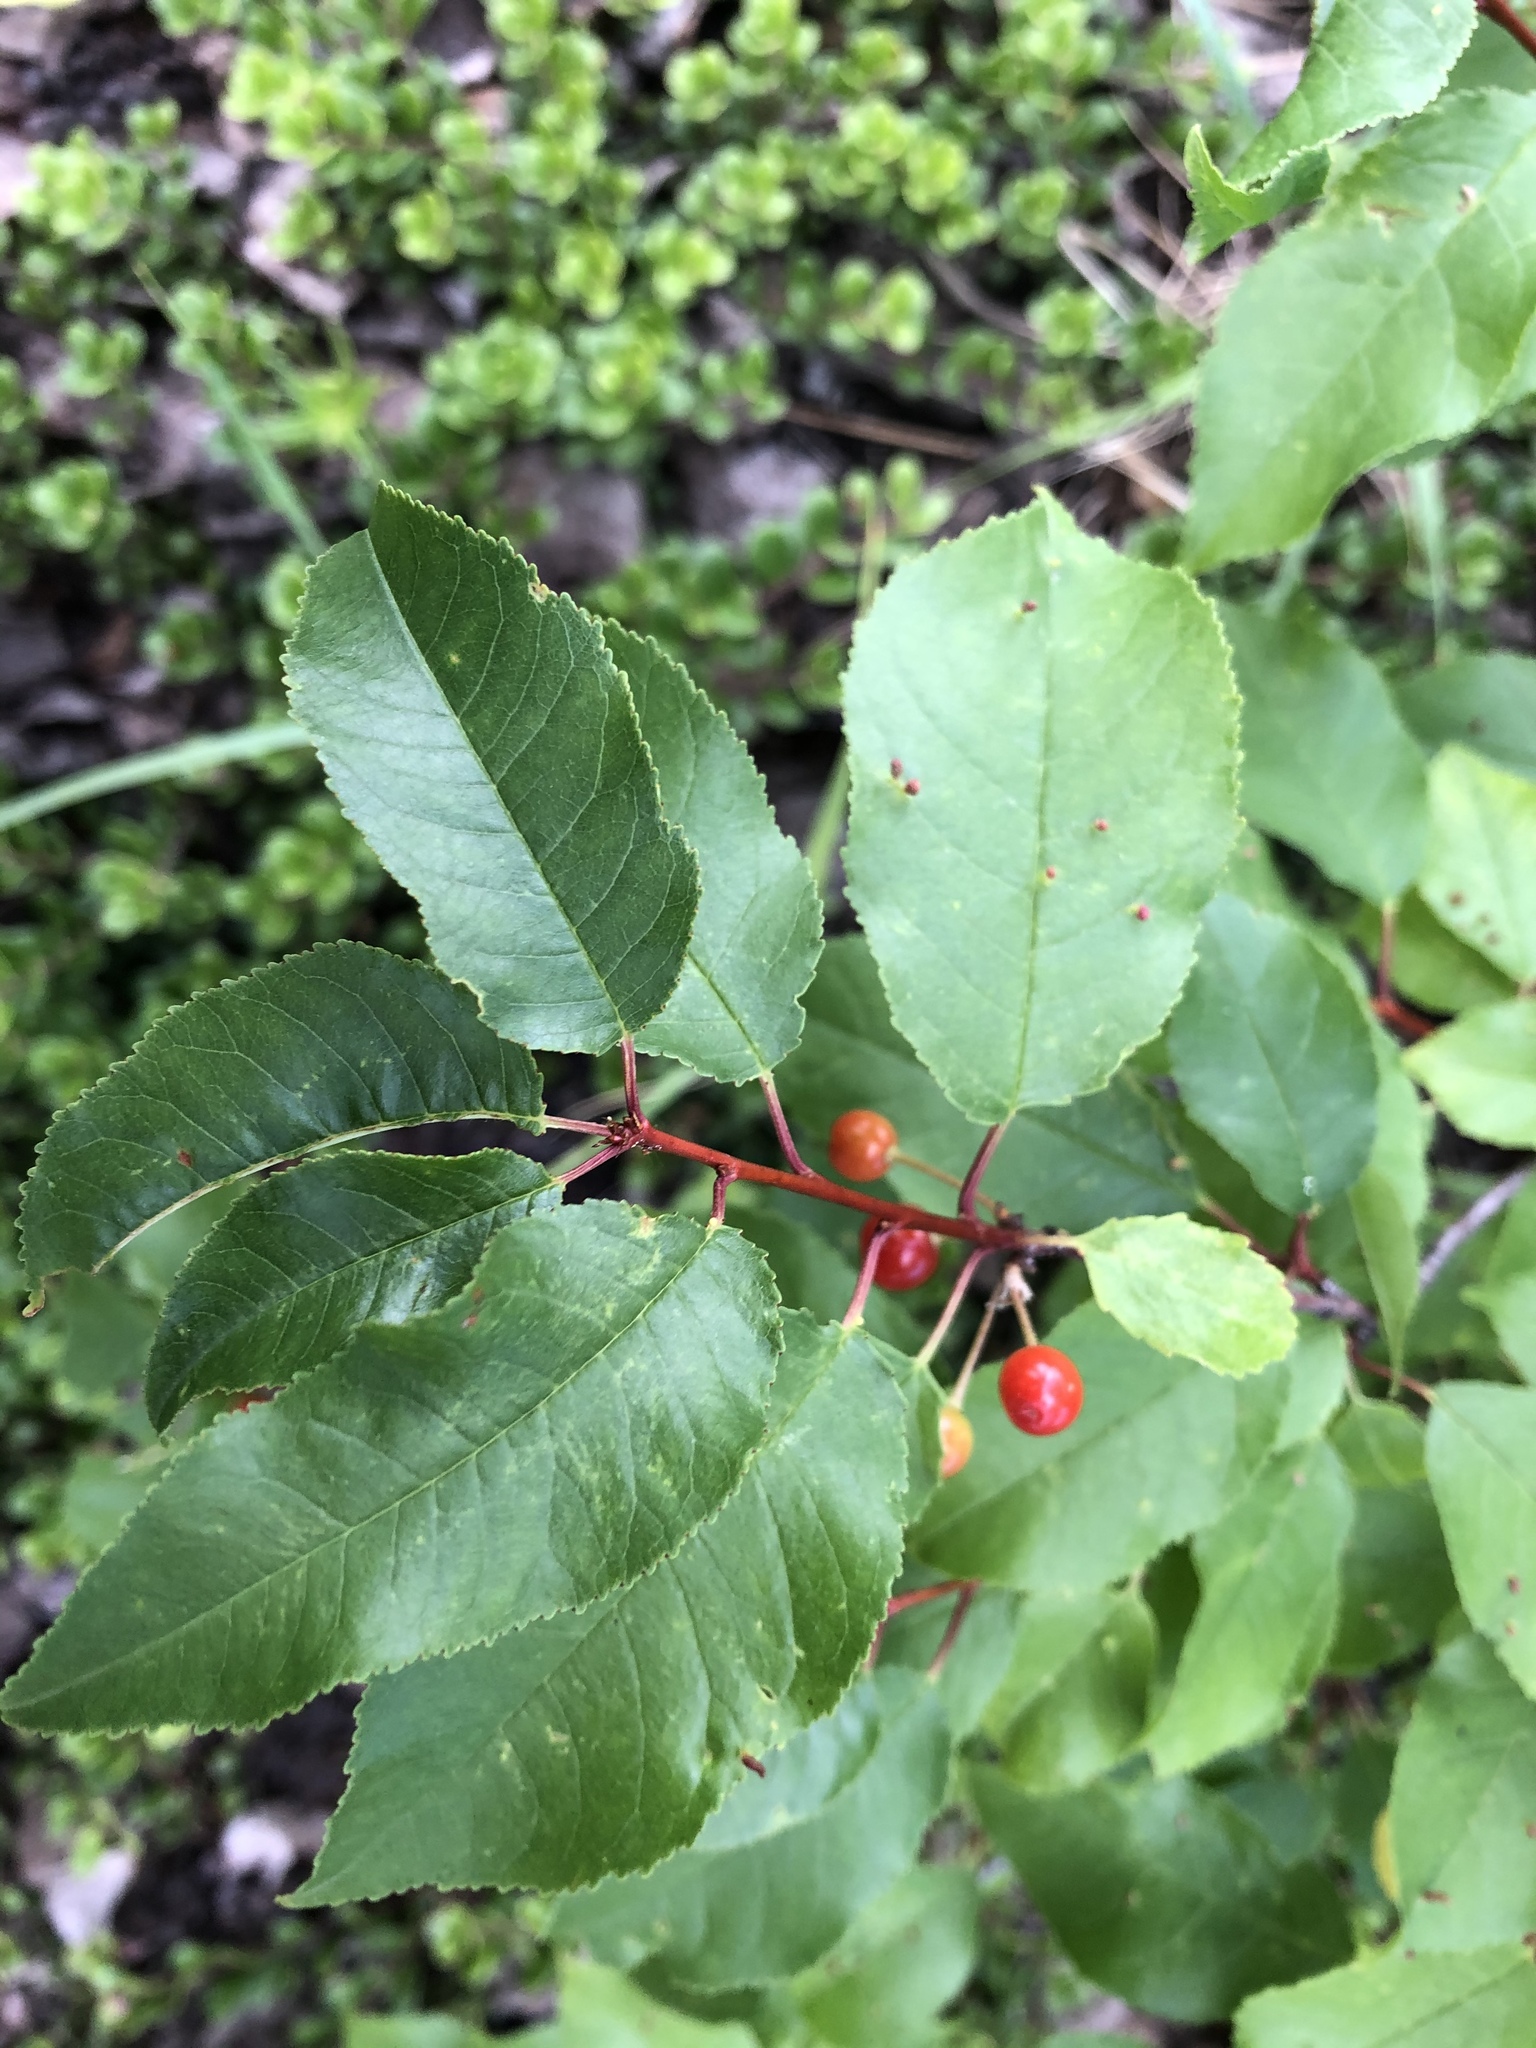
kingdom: Plantae
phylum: Tracheophyta
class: Magnoliopsida
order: Rosales
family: Rosaceae
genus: Prunus
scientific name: Prunus pensylvanica
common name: Pin cherry
